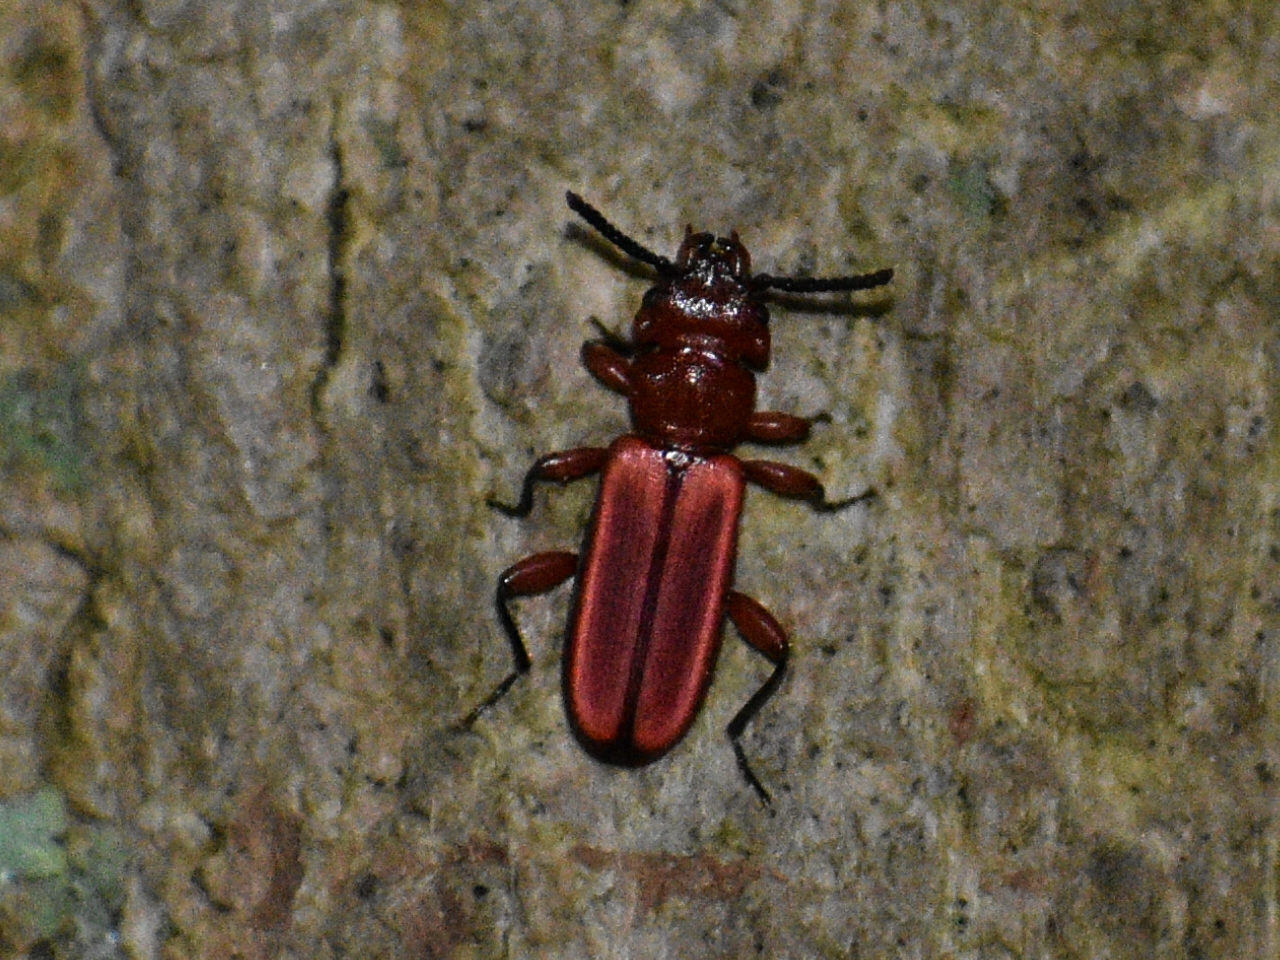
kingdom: Animalia
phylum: Arthropoda
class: Insecta
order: Coleoptera
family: Cucujidae
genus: Cucujus
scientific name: Cucujus clavipes
